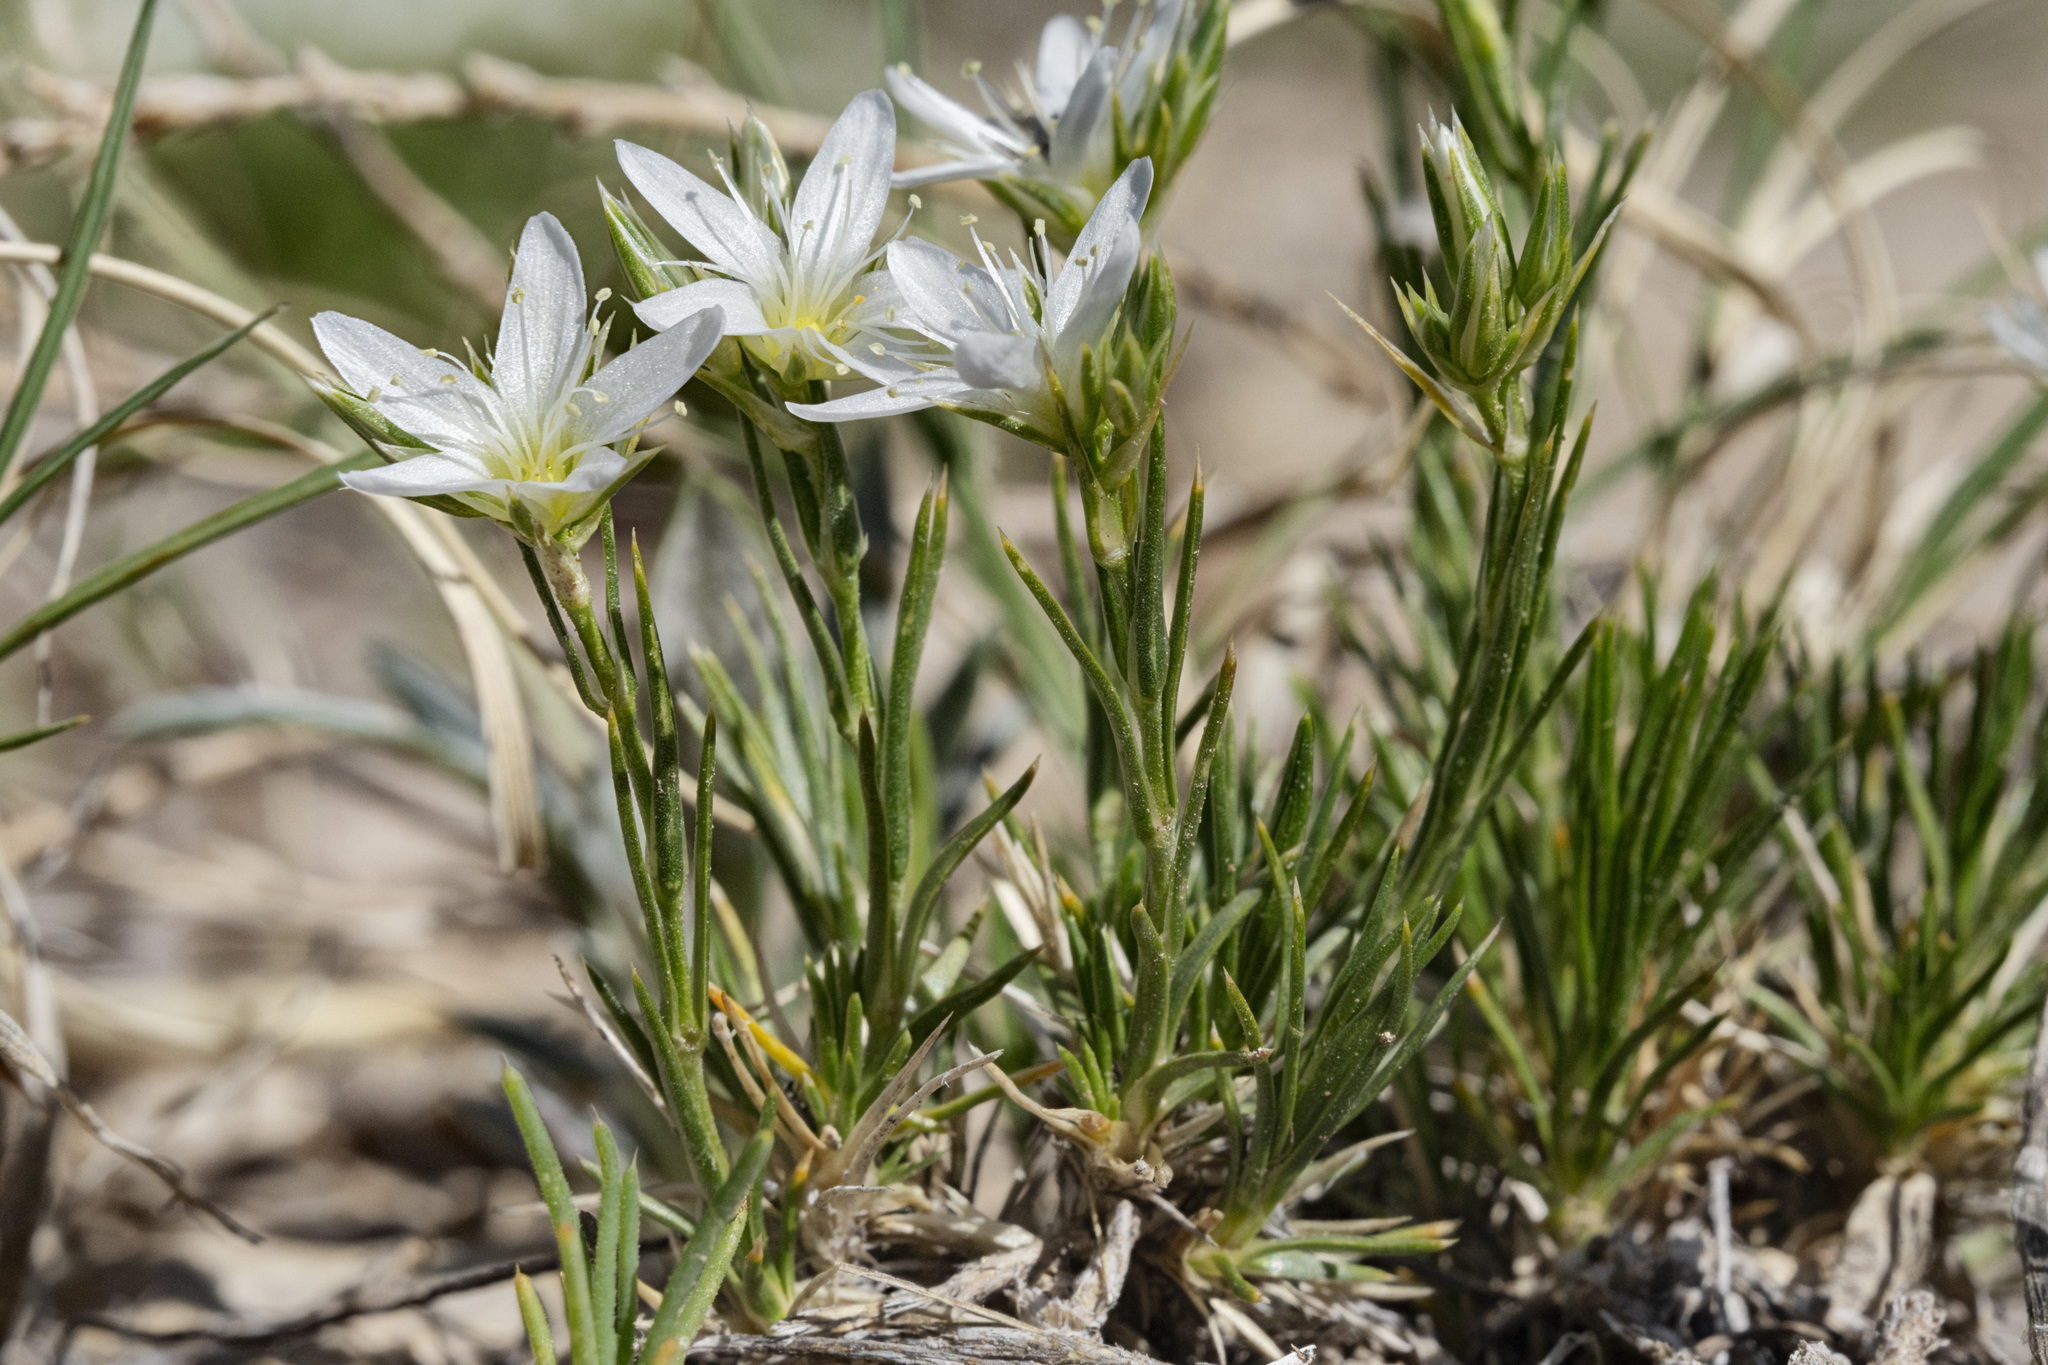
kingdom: Plantae
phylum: Tracheophyta
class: Magnoliopsida
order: Caryophyllales
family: Caryophyllaceae
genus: Eremogone
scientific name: Eremogone hookeri
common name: Hooker's sandwort
